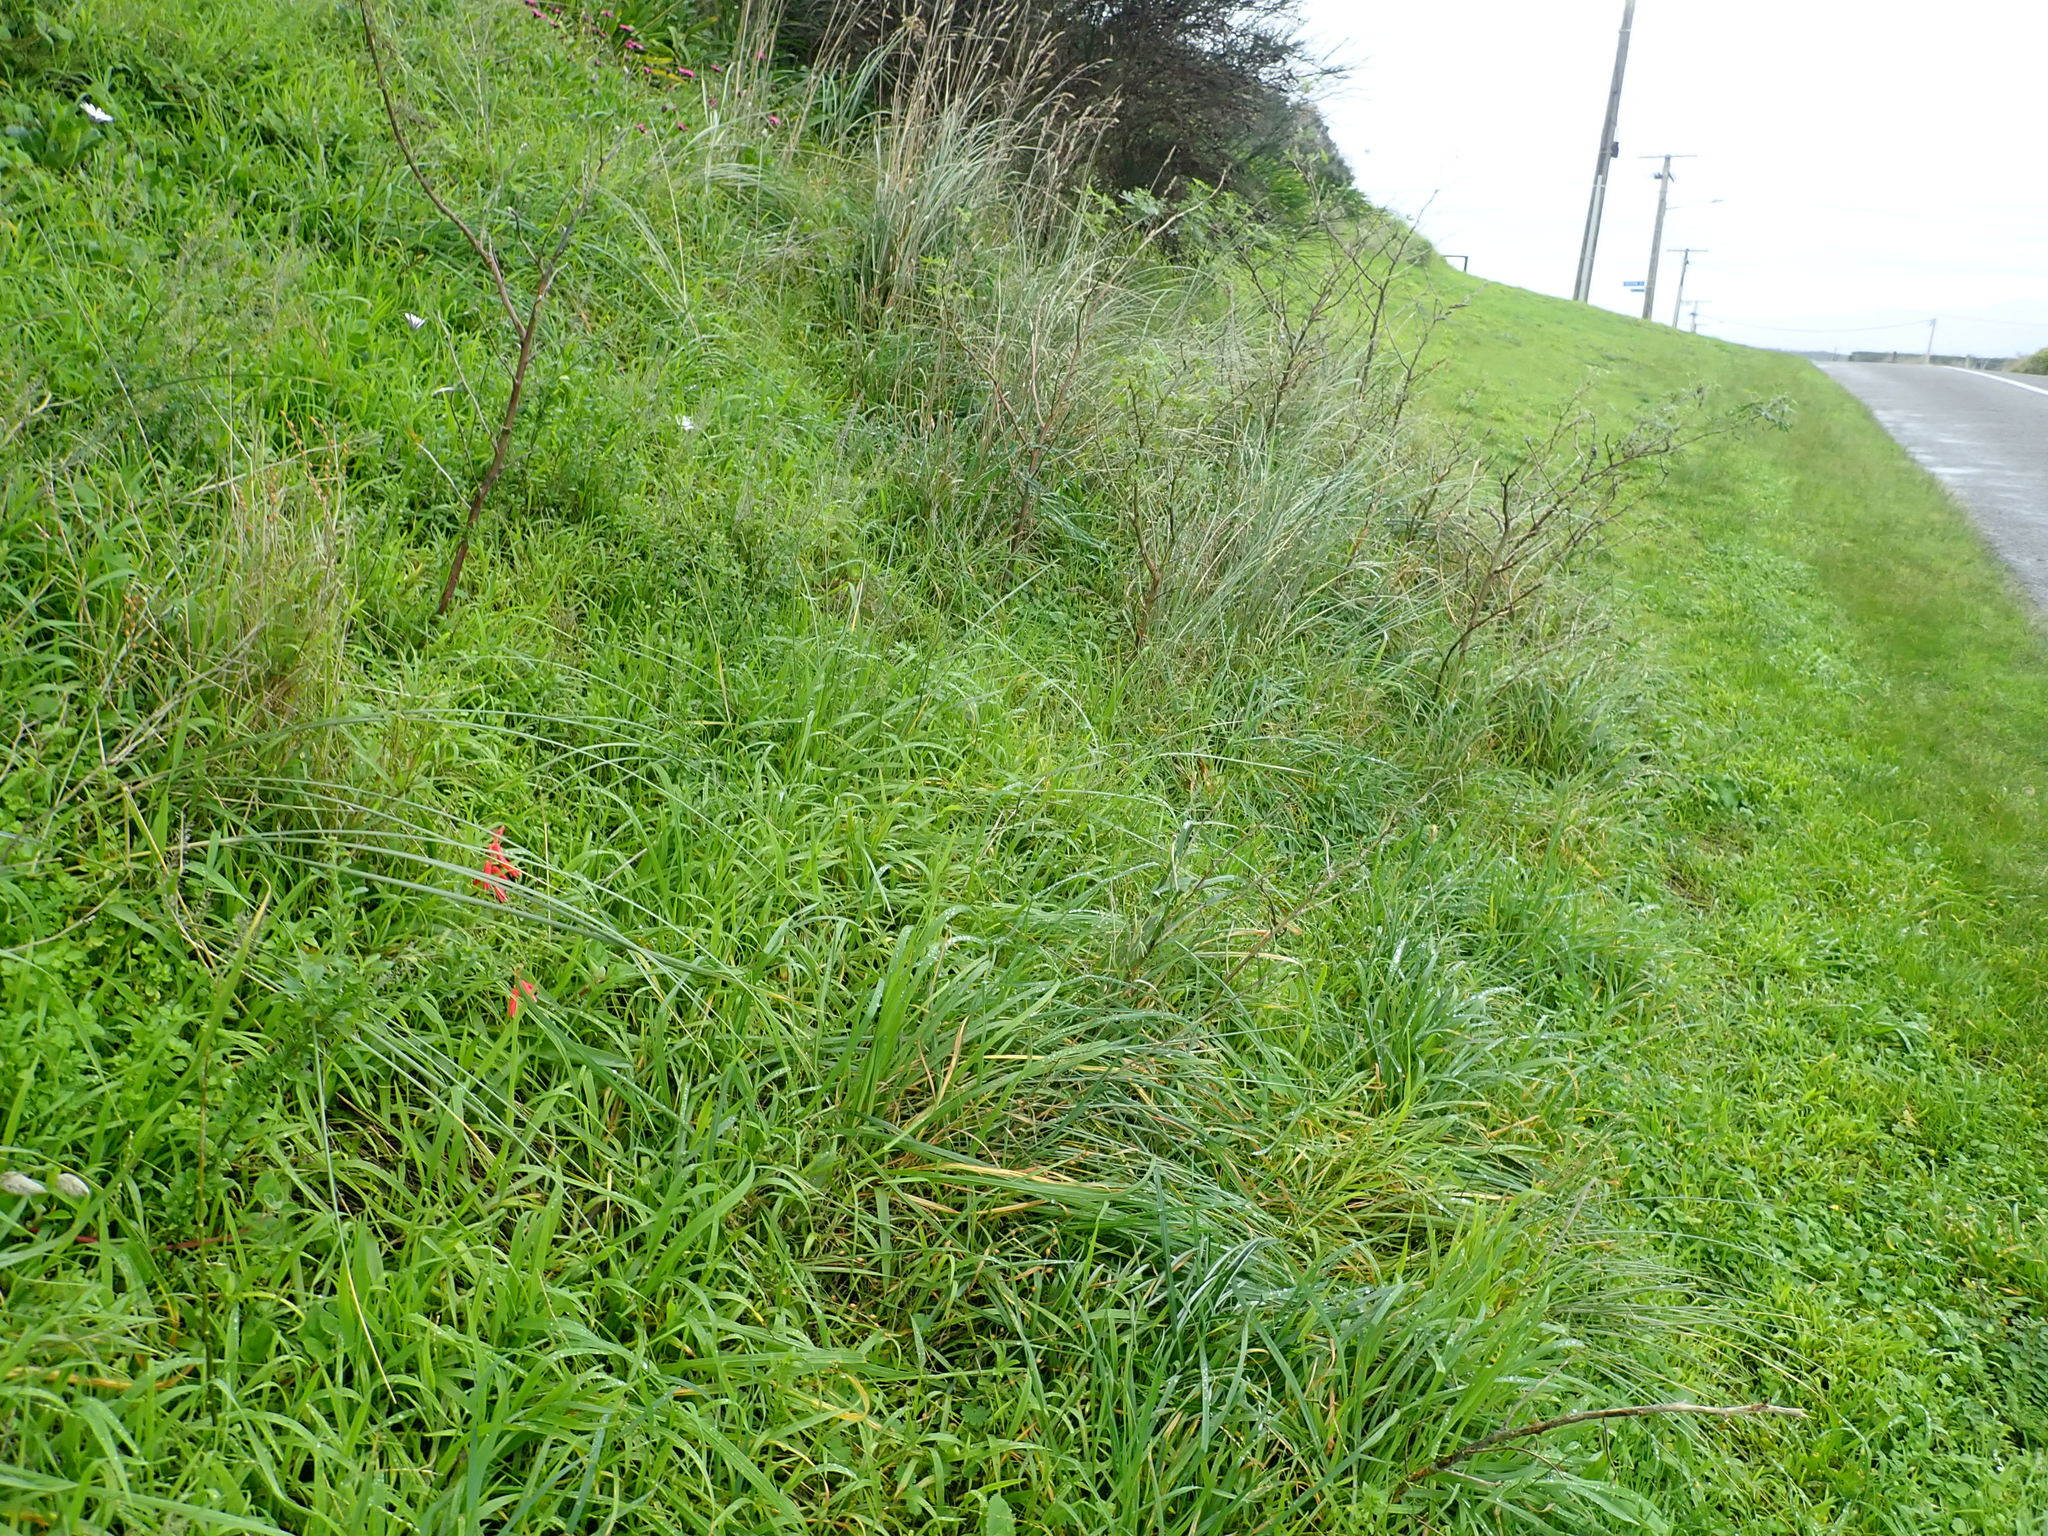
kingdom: Plantae
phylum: Tracheophyta
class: Liliopsida
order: Asparagales
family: Asparagaceae
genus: Lachenalia
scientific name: Lachenalia bulbifera
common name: Red lachenalia
